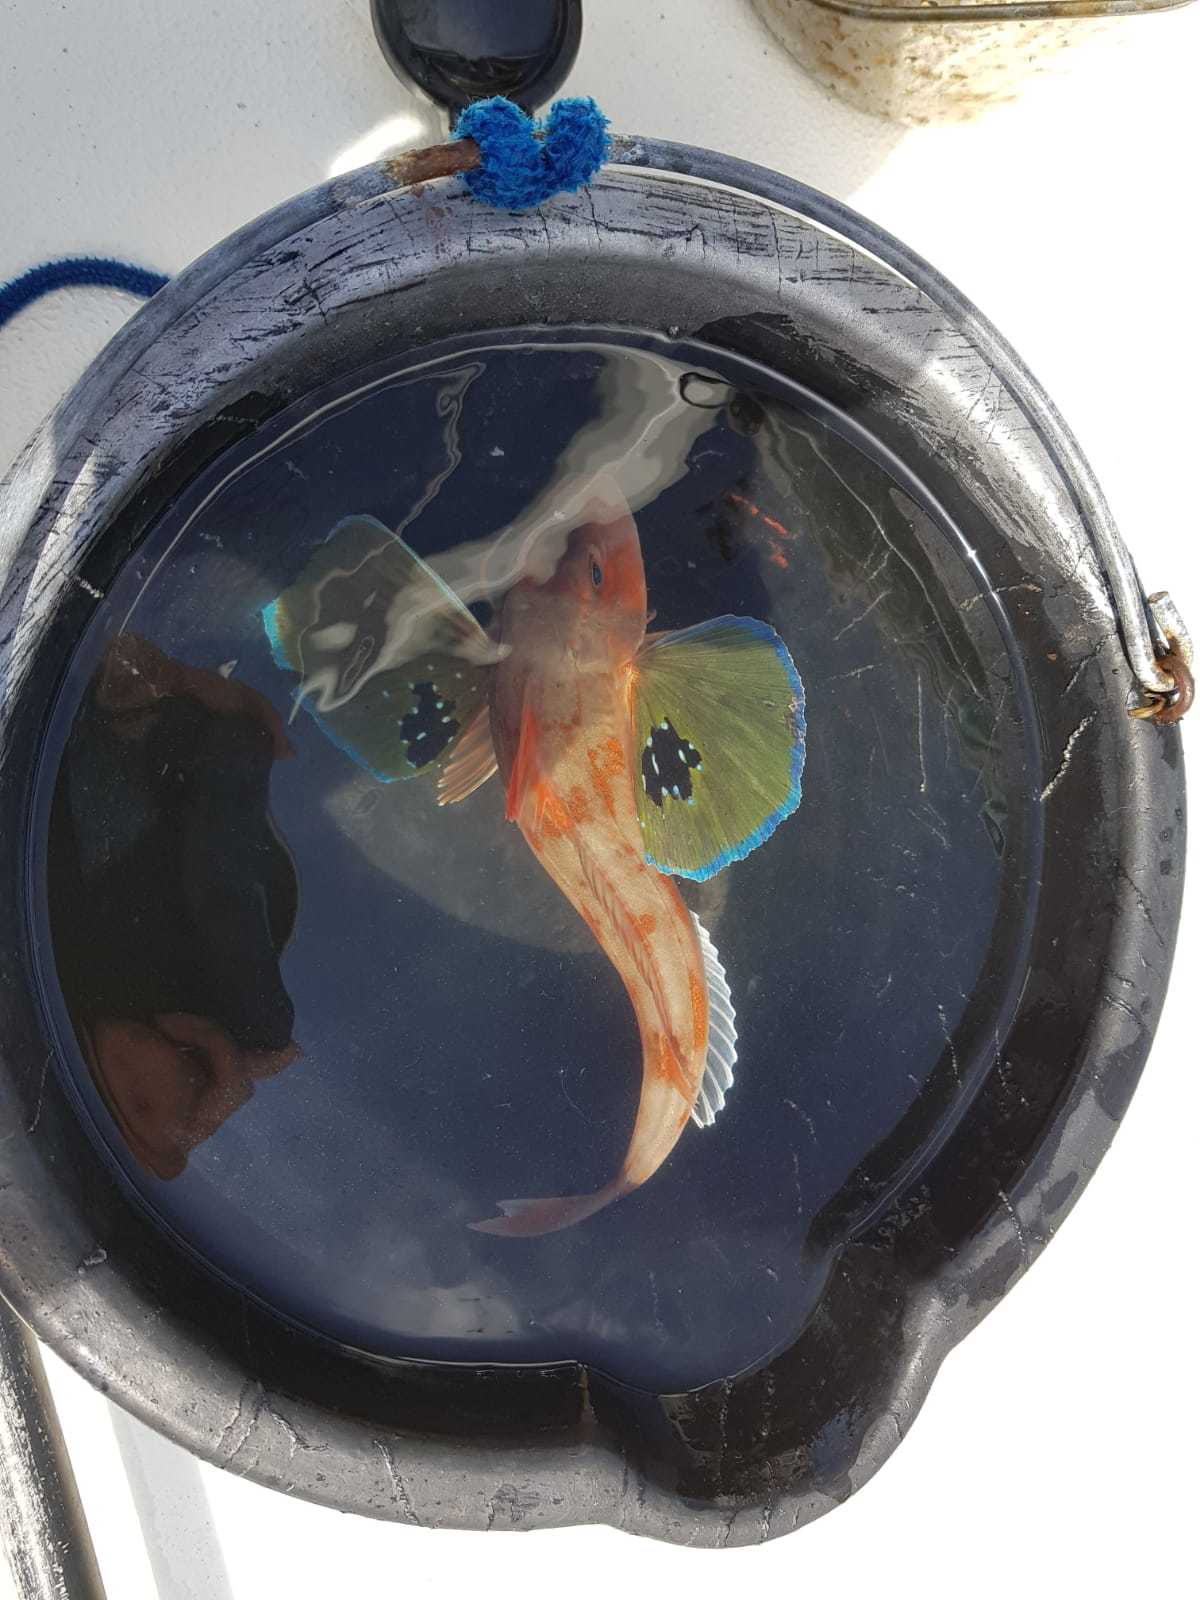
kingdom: Animalia
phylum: Chordata
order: Scorpaeniformes
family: Triglidae
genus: Chelidonichthys
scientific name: Chelidonichthys kumu
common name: Bluefin gurnard
